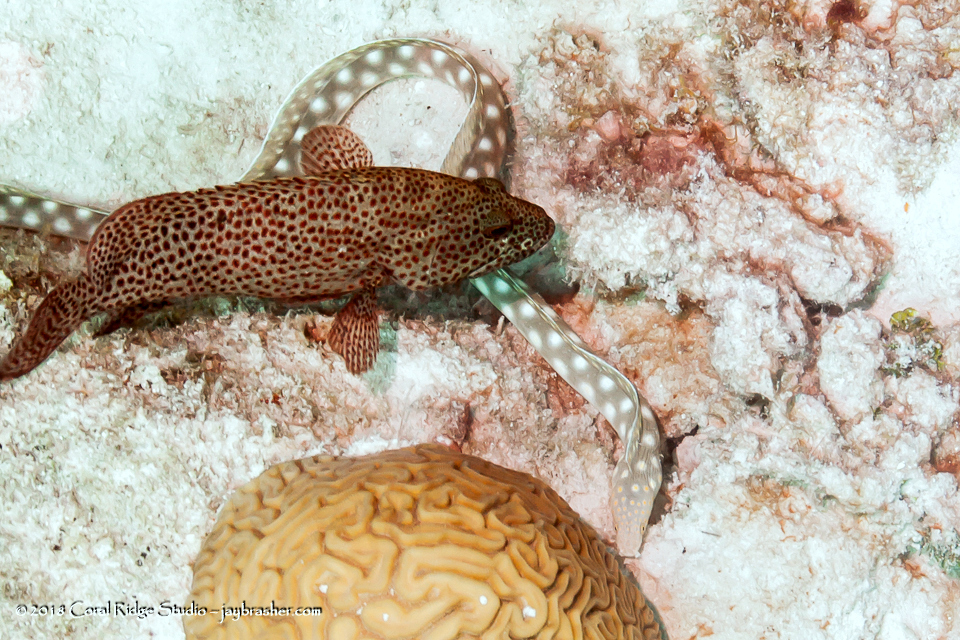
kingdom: Animalia
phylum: Chordata
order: Perciformes
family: Serranidae
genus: Cephalopholis
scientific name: Cephalopholis cruentata
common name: Graysby
